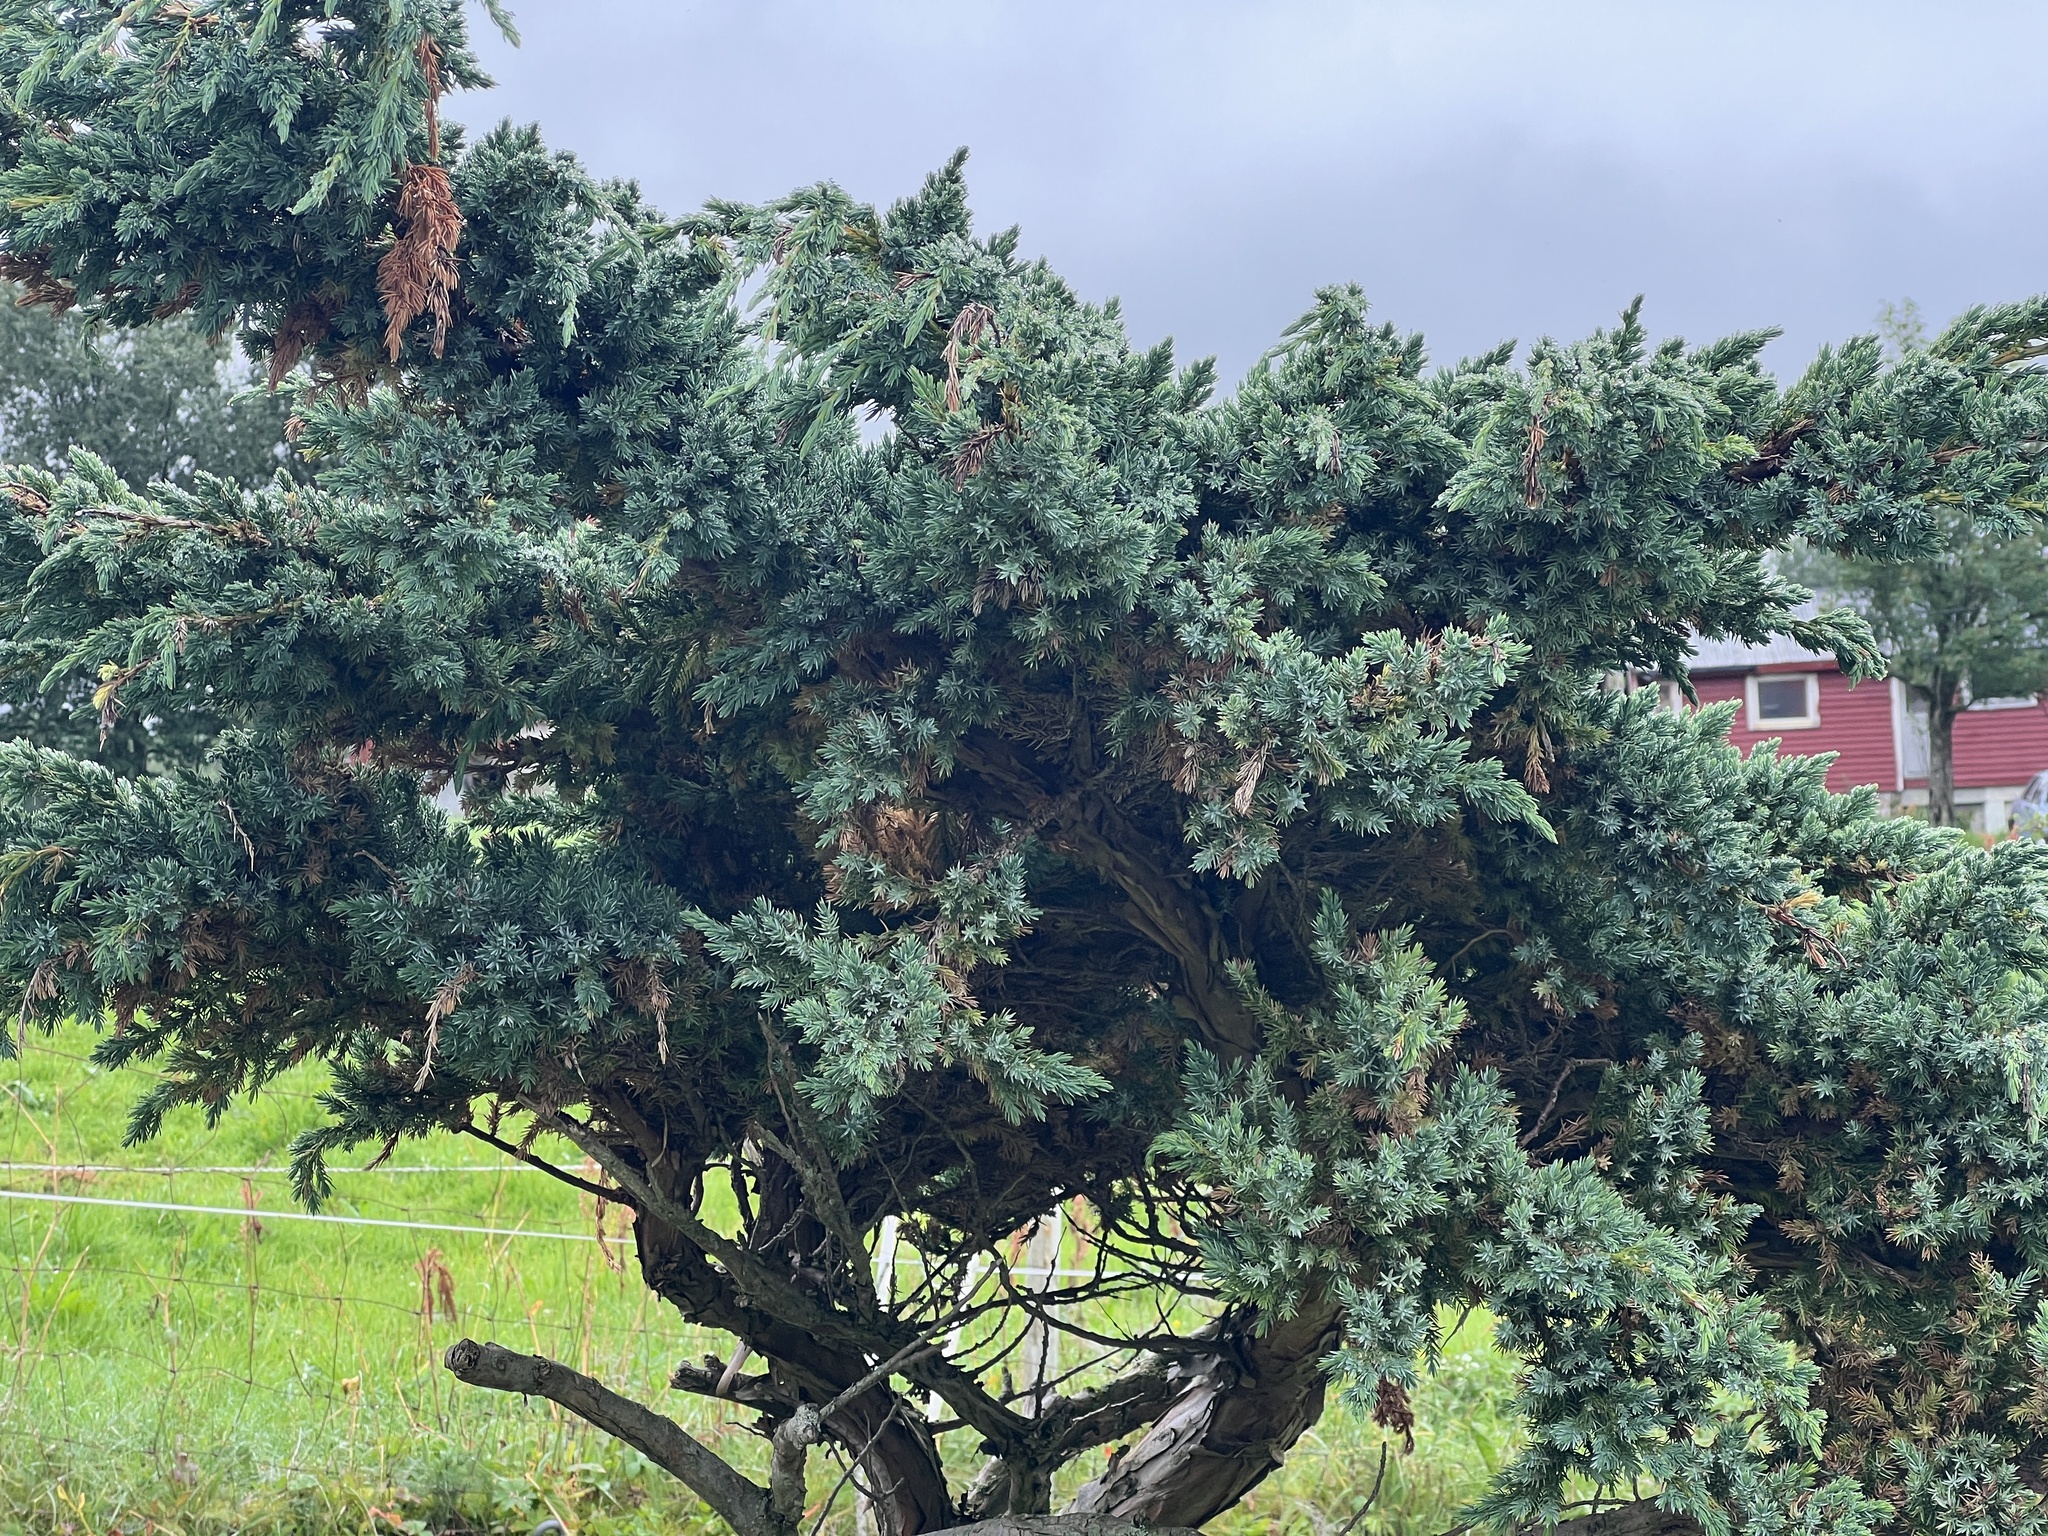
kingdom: Plantae
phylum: Tracheophyta
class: Pinopsida
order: Pinales
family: Cupressaceae
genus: Juniperus
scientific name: Juniperus communis
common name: Common juniper
